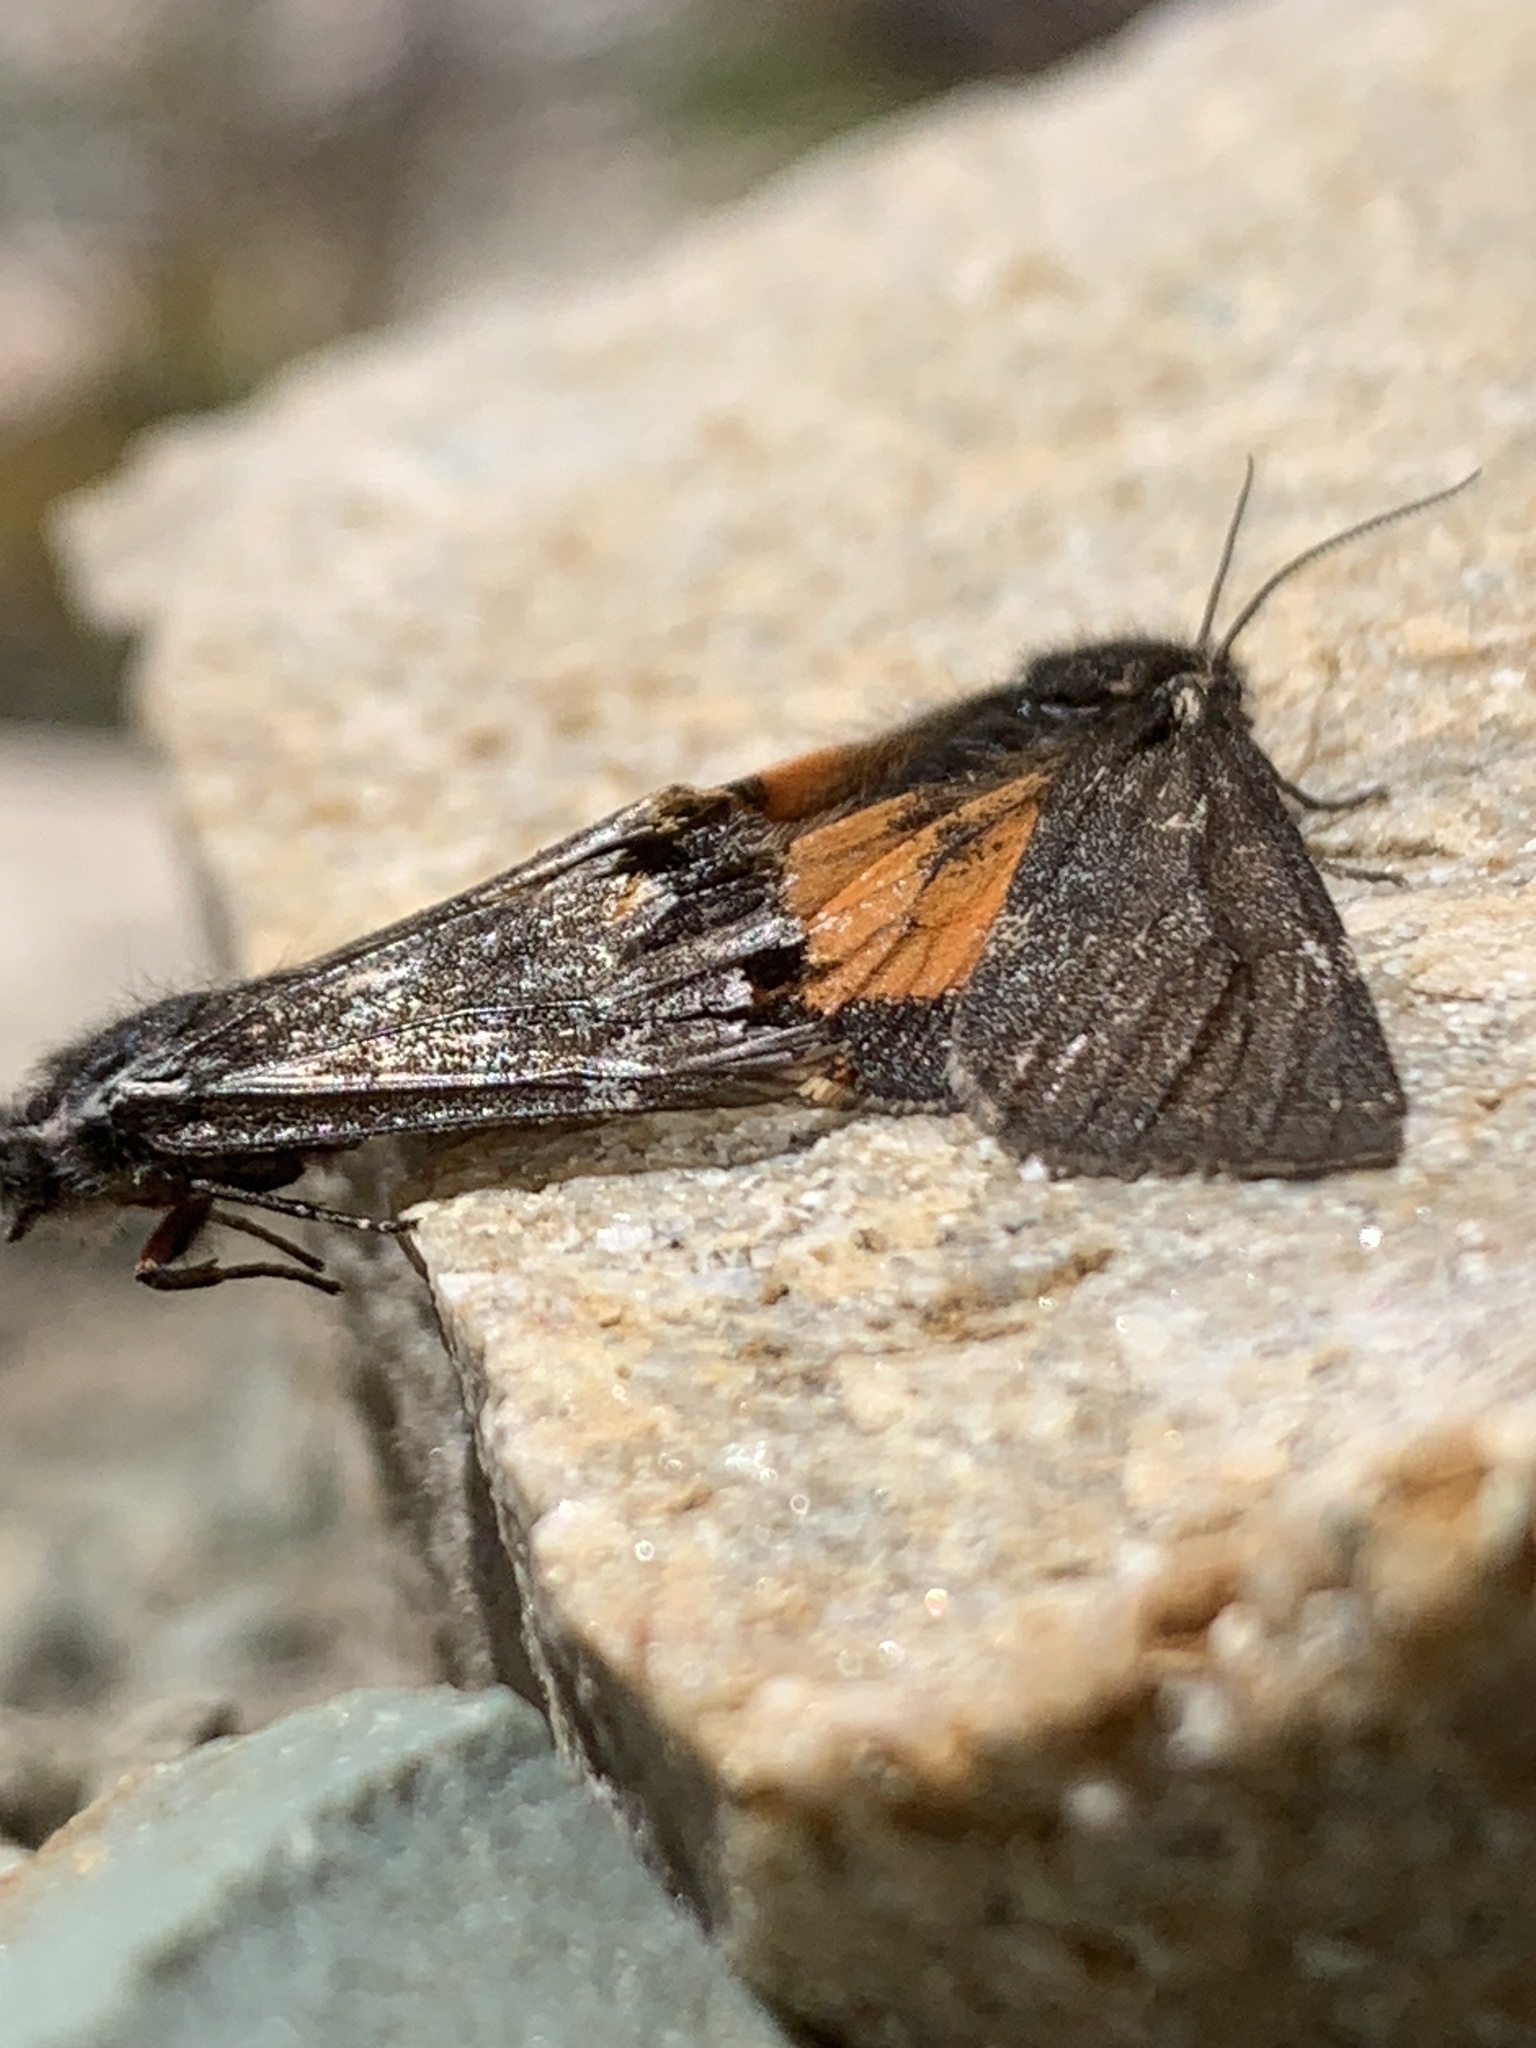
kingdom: Animalia
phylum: Arthropoda
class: Insecta
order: Lepidoptera
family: Erebidae
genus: Leptarctia
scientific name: Leptarctia californiae
